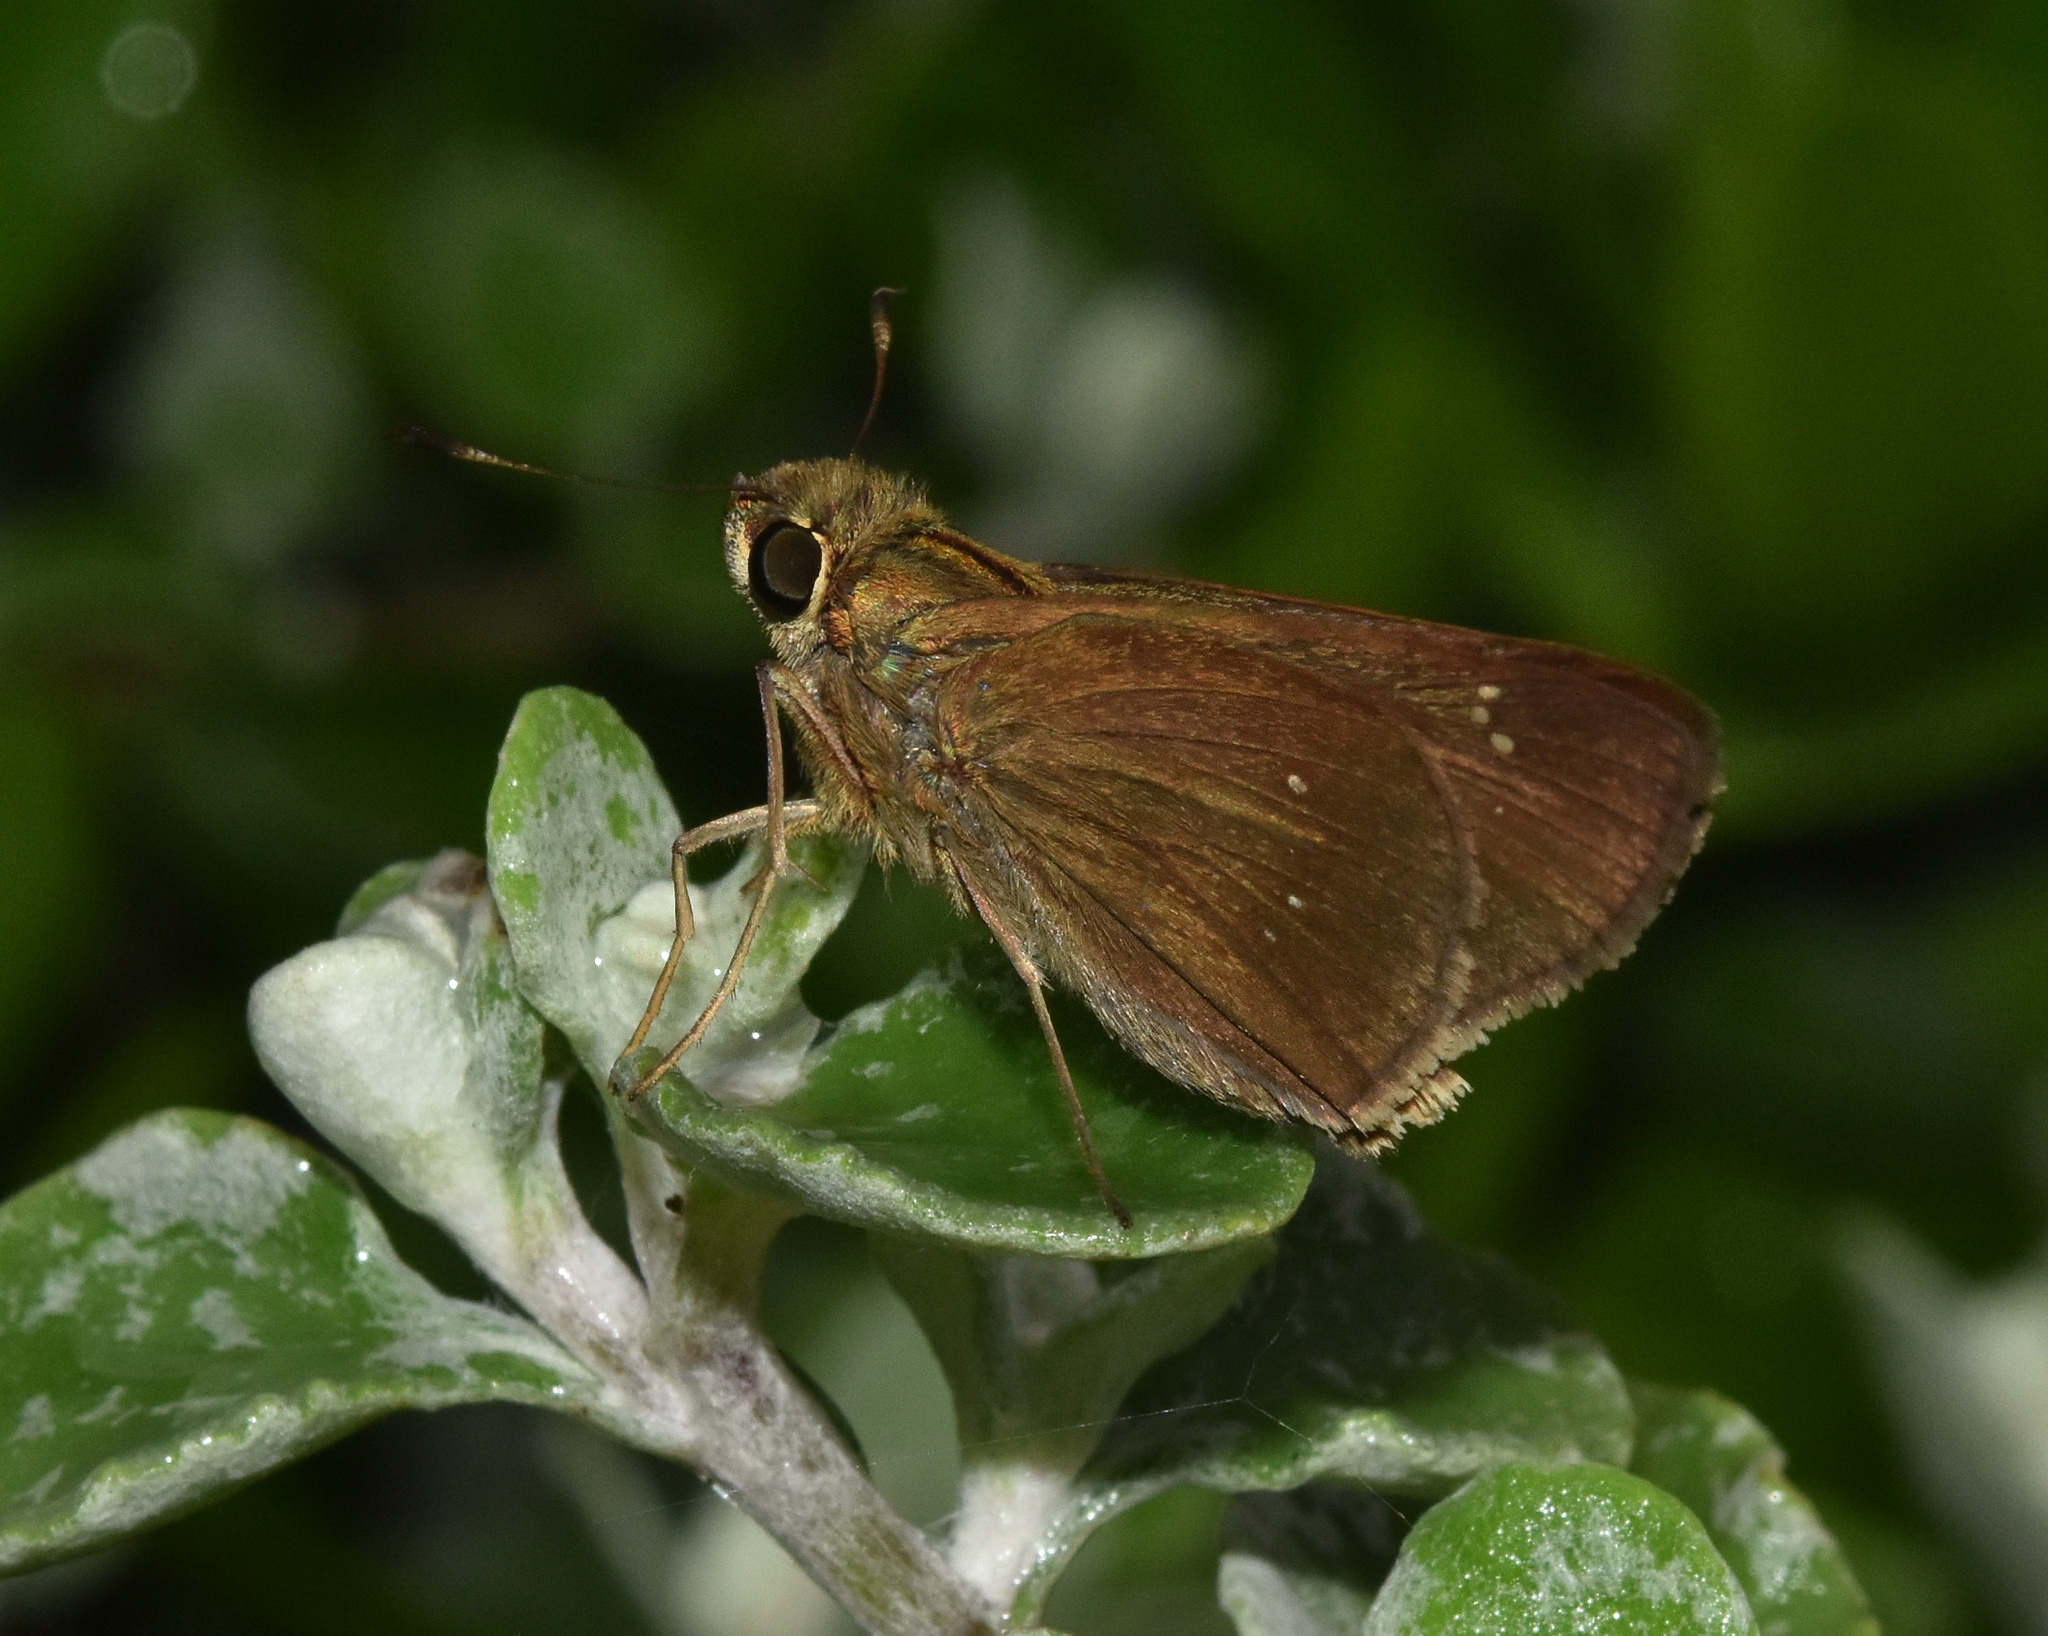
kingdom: Animalia
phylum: Arthropoda
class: Insecta
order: Lepidoptera
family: Hesperiidae
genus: Baoris
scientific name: Baoris fatuellus
